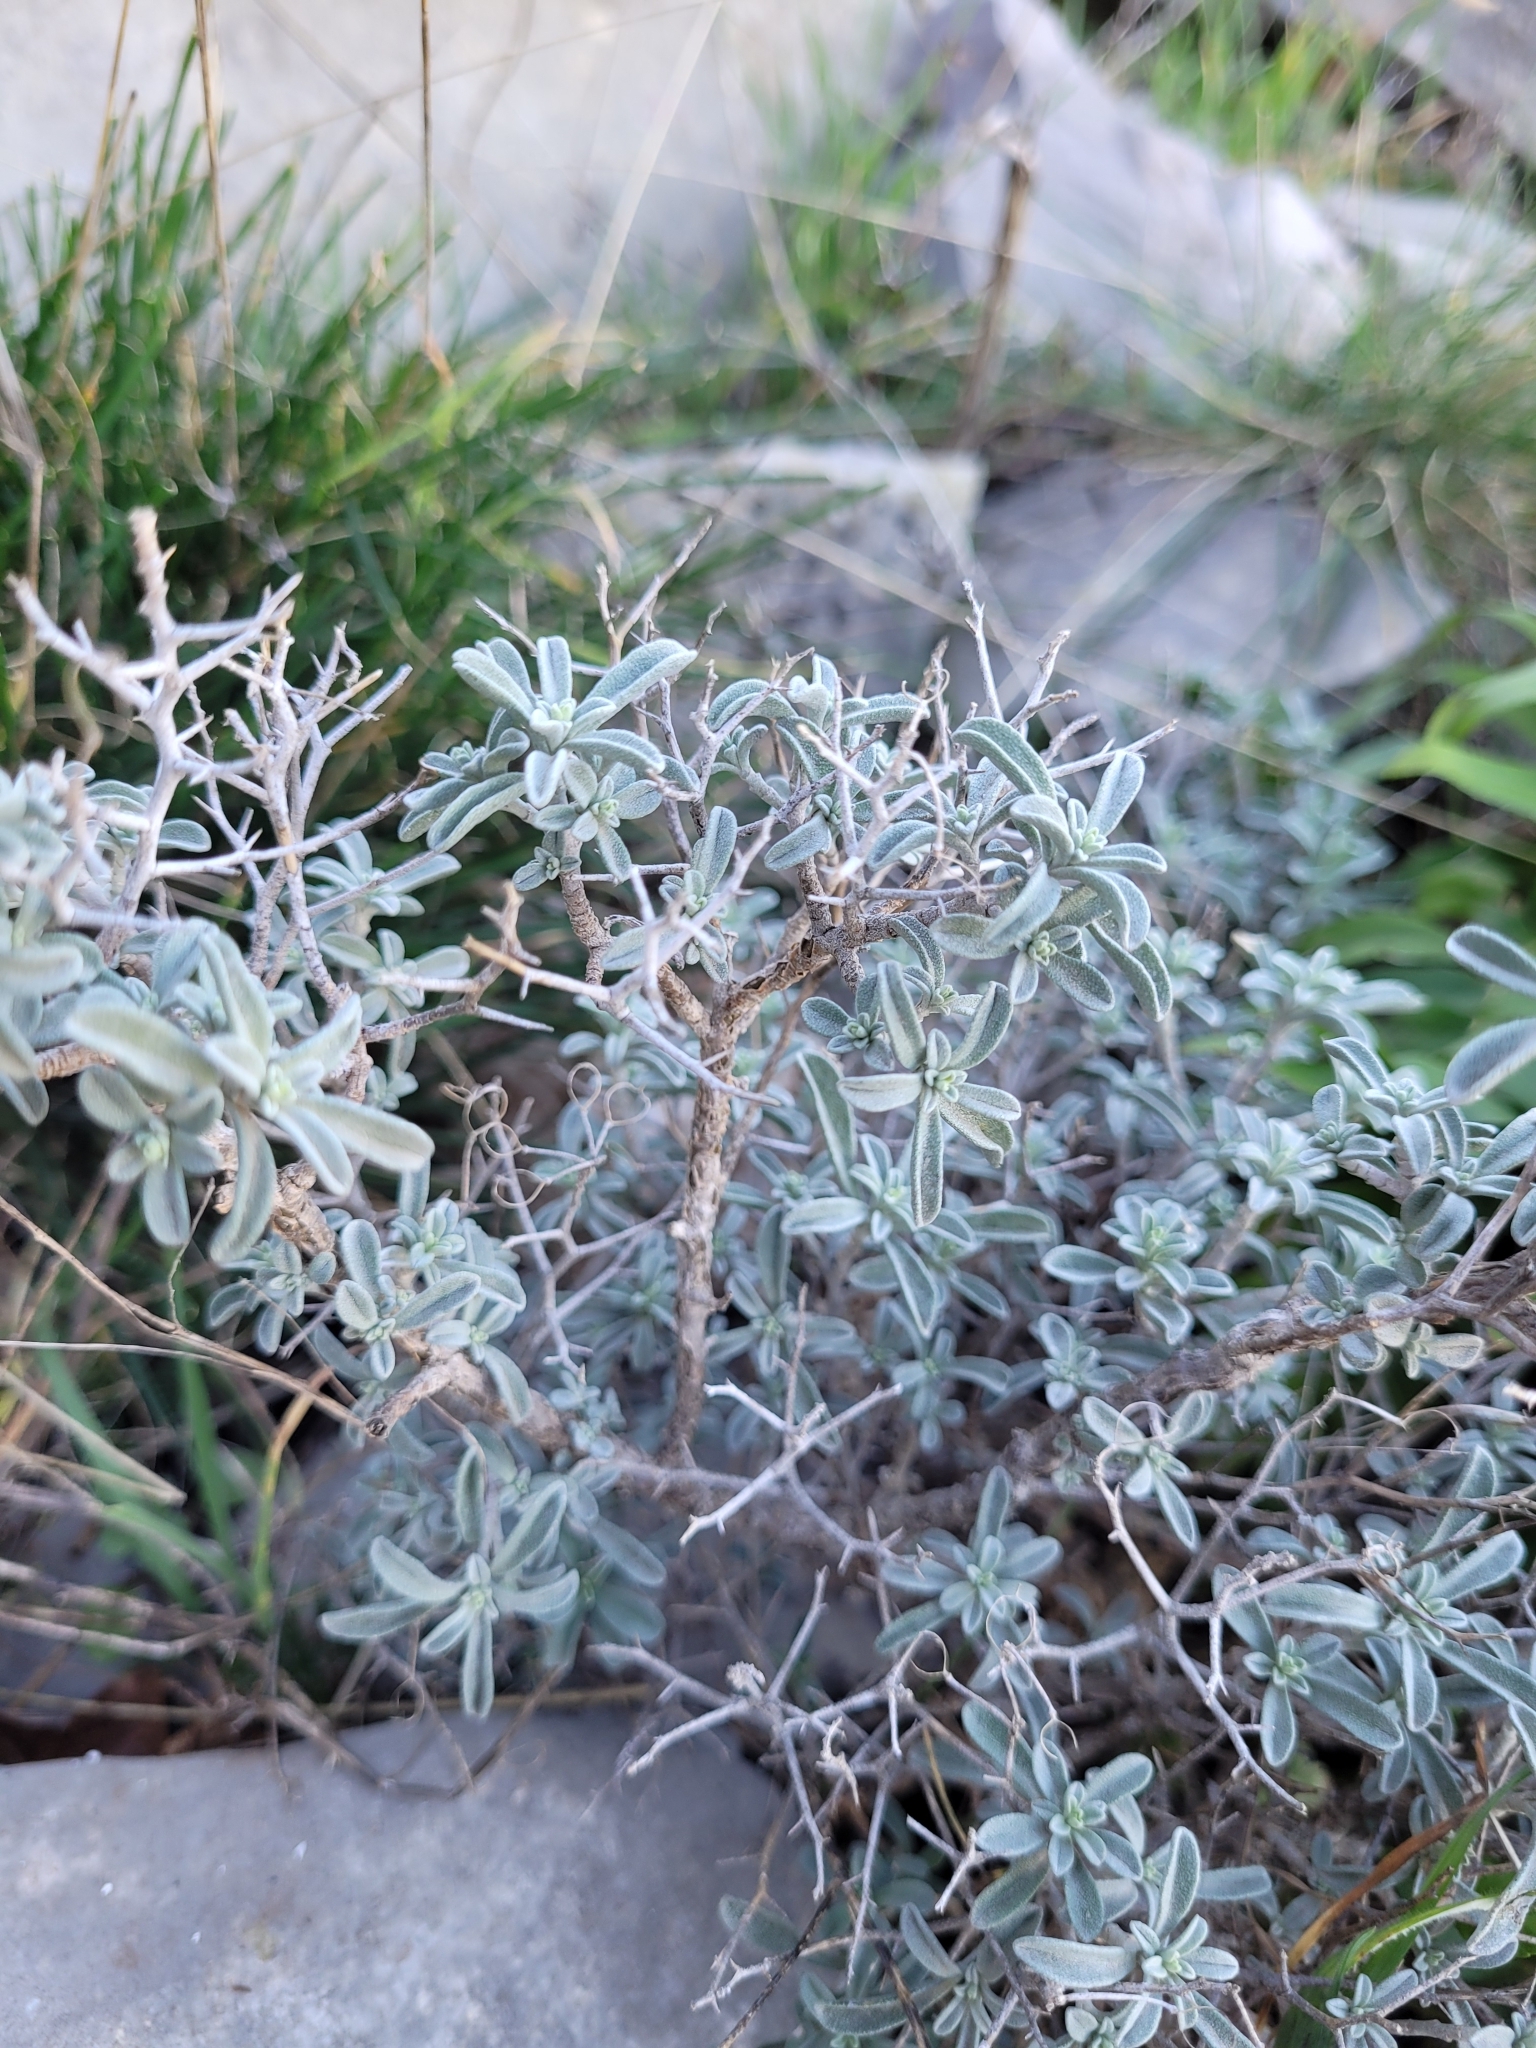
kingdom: Plantae
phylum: Tracheophyta
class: Magnoliopsida
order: Brassicales
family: Brassicaceae
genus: Hormathophylla
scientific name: Hormathophylla spinosa
